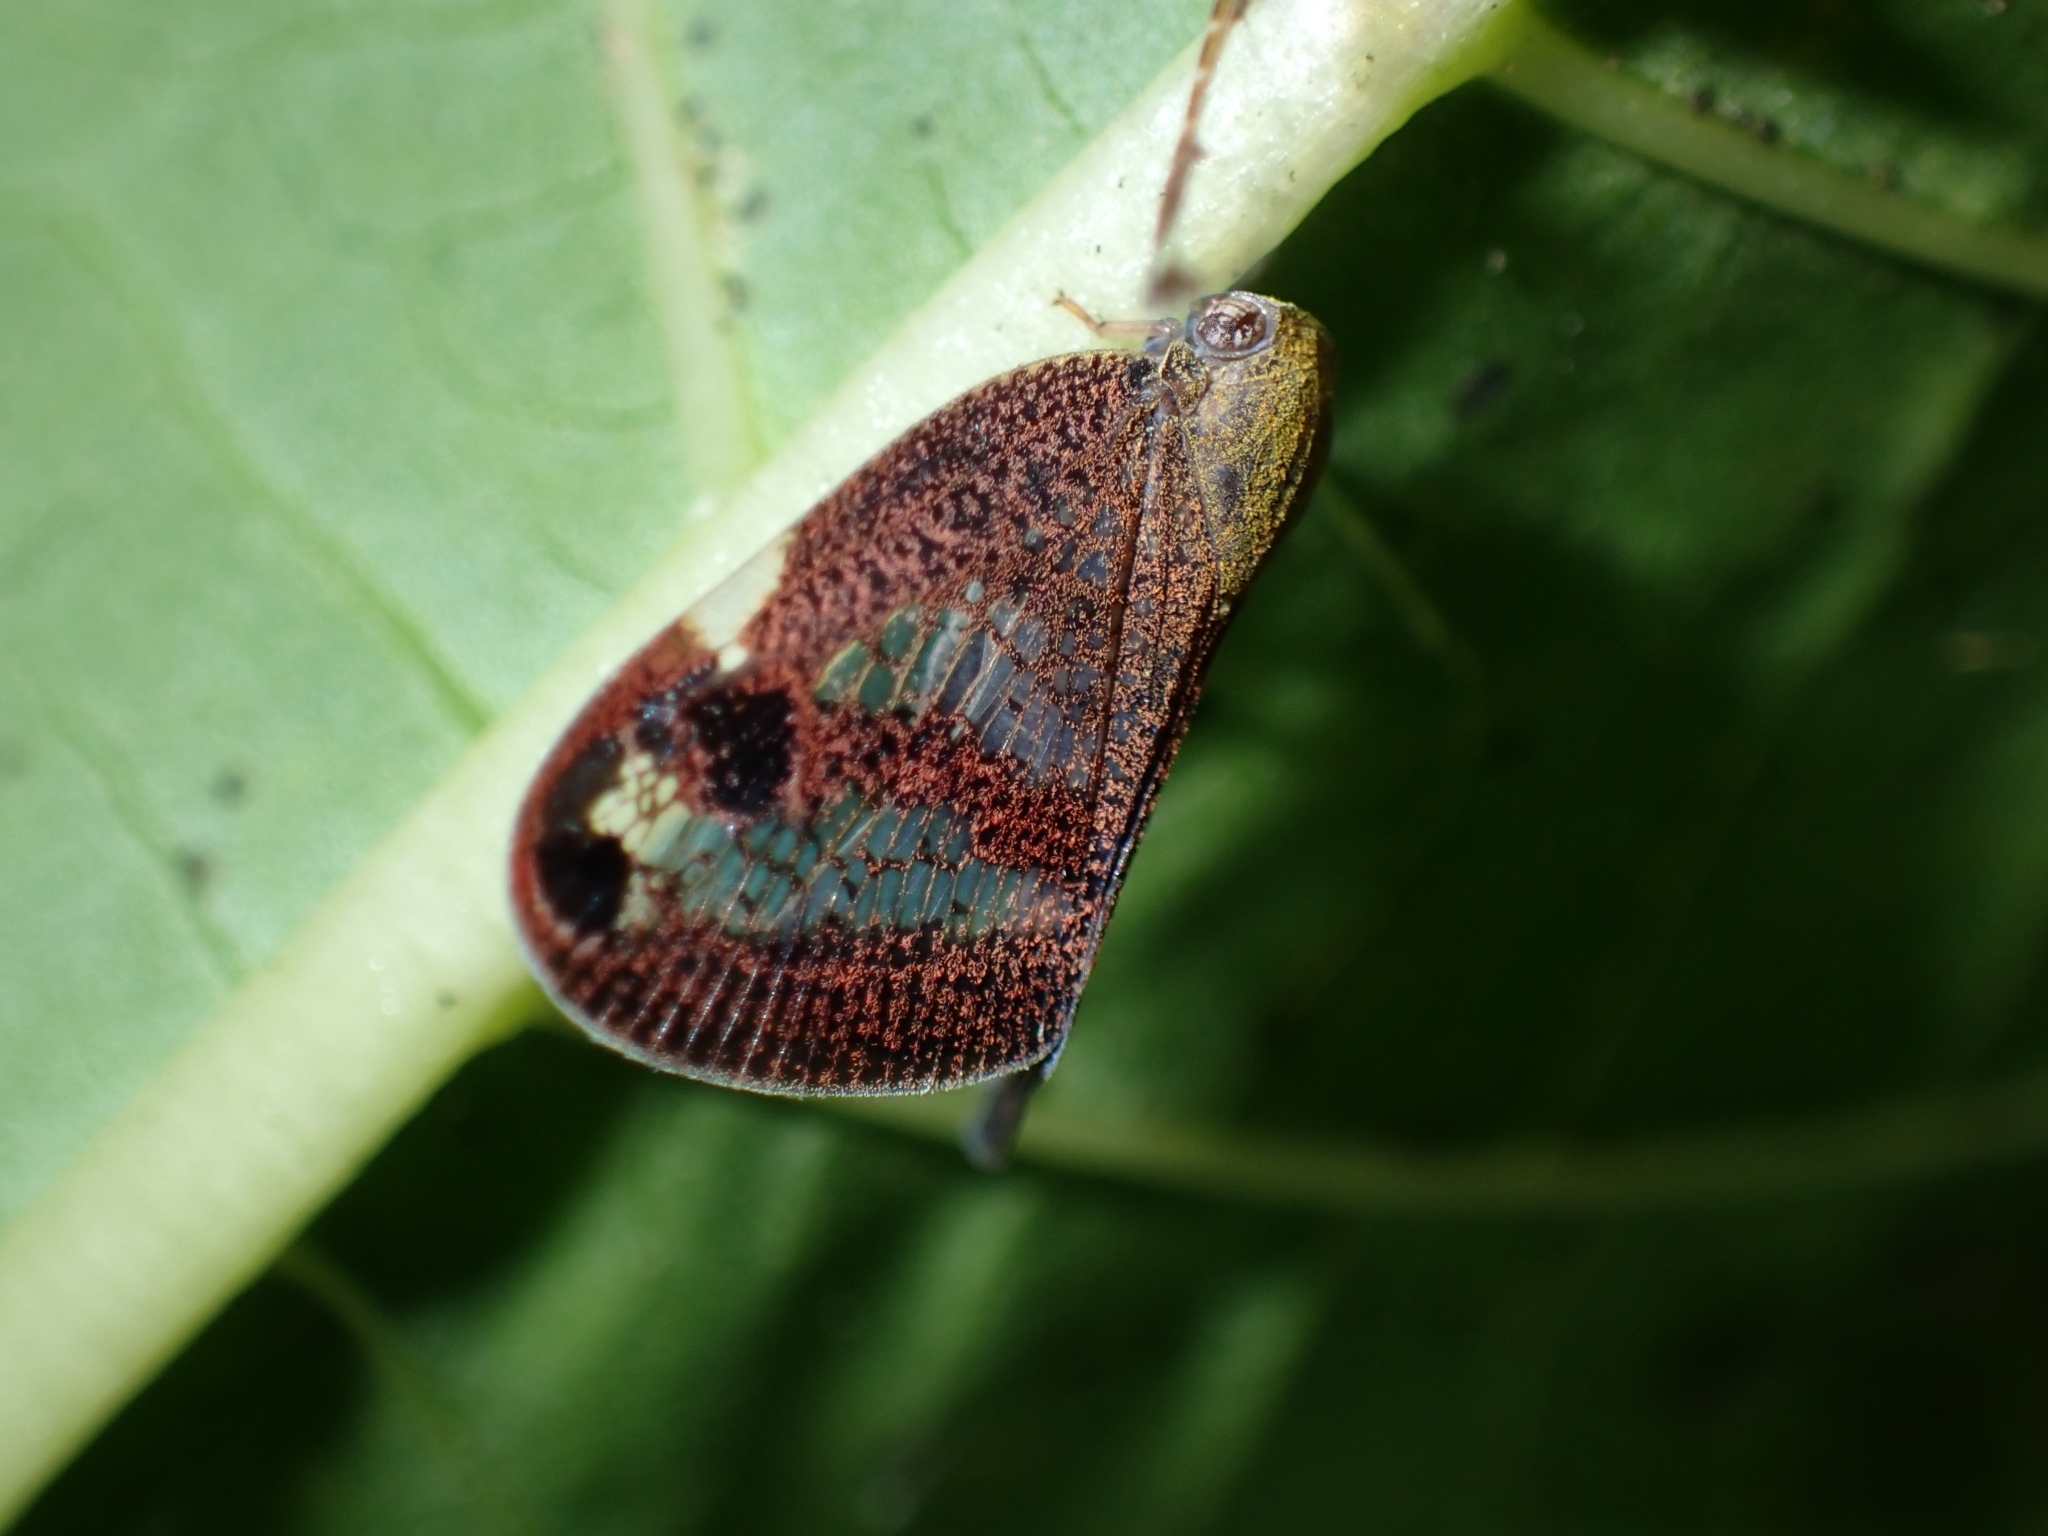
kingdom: Animalia
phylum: Arthropoda
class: Insecta
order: Hemiptera
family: Ricaniidae
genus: Parapiromis
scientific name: Parapiromis translucida
